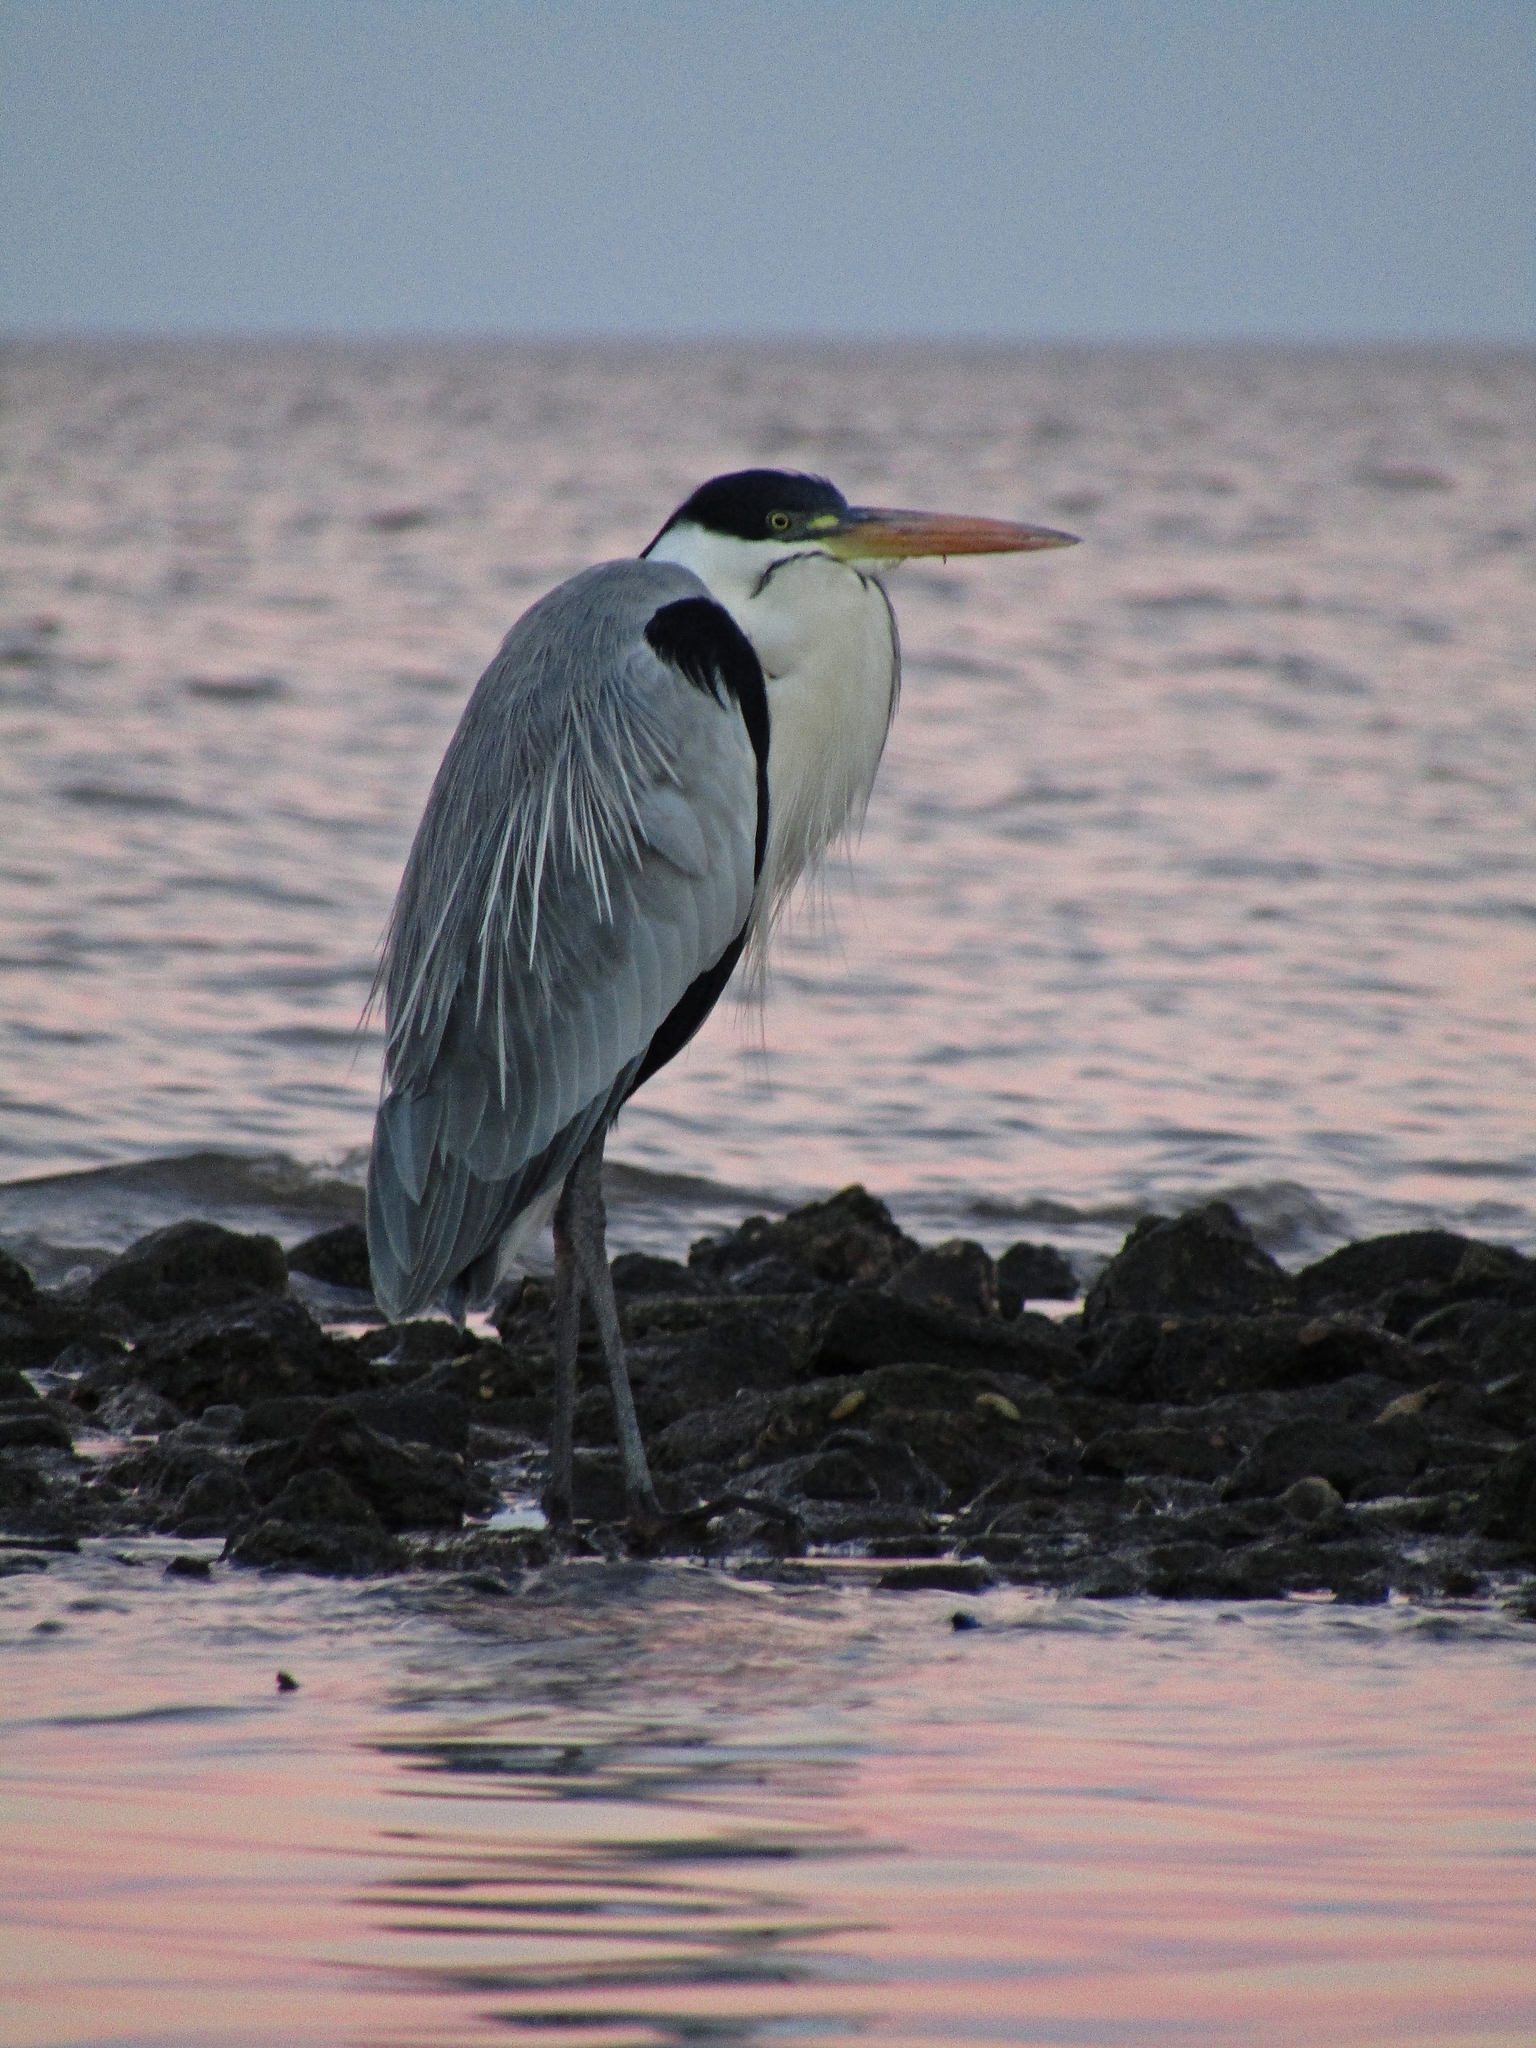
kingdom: Animalia
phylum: Chordata
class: Aves
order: Pelecaniformes
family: Ardeidae
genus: Ardea
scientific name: Ardea cocoi
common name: Cocoi heron
